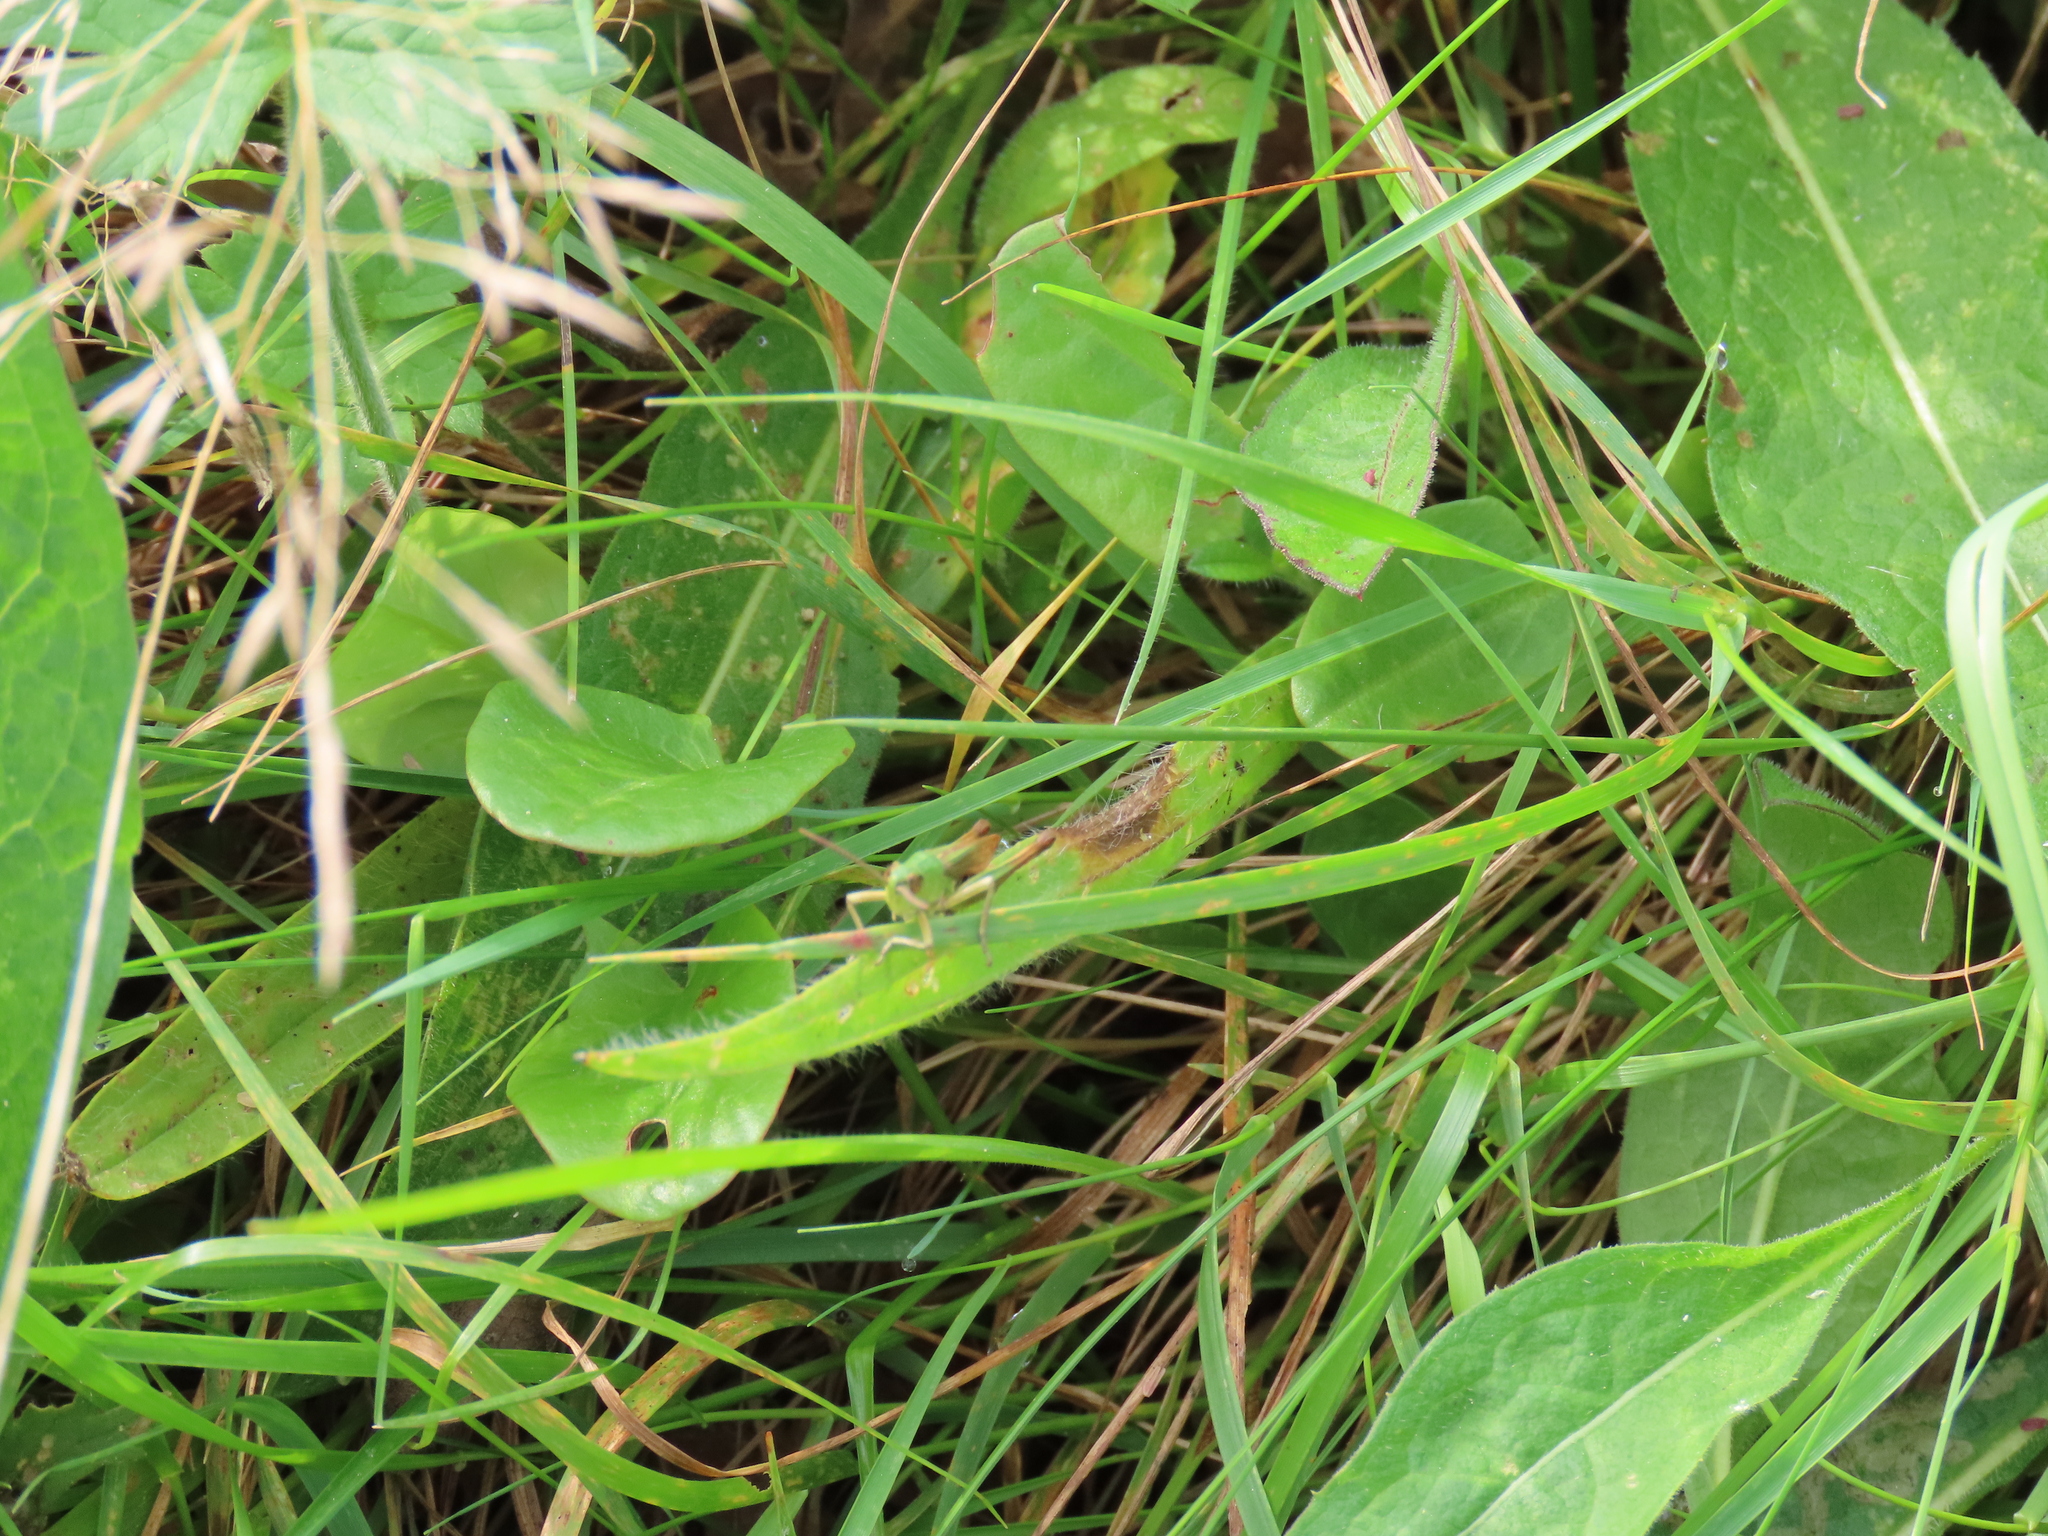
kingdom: Animalia
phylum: Arthropoda
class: Insecta
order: Orthoptera
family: Acrididae
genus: Pseudochorthippus
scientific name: Pseudochorthippus parallelus
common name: Meadow grasshopper
